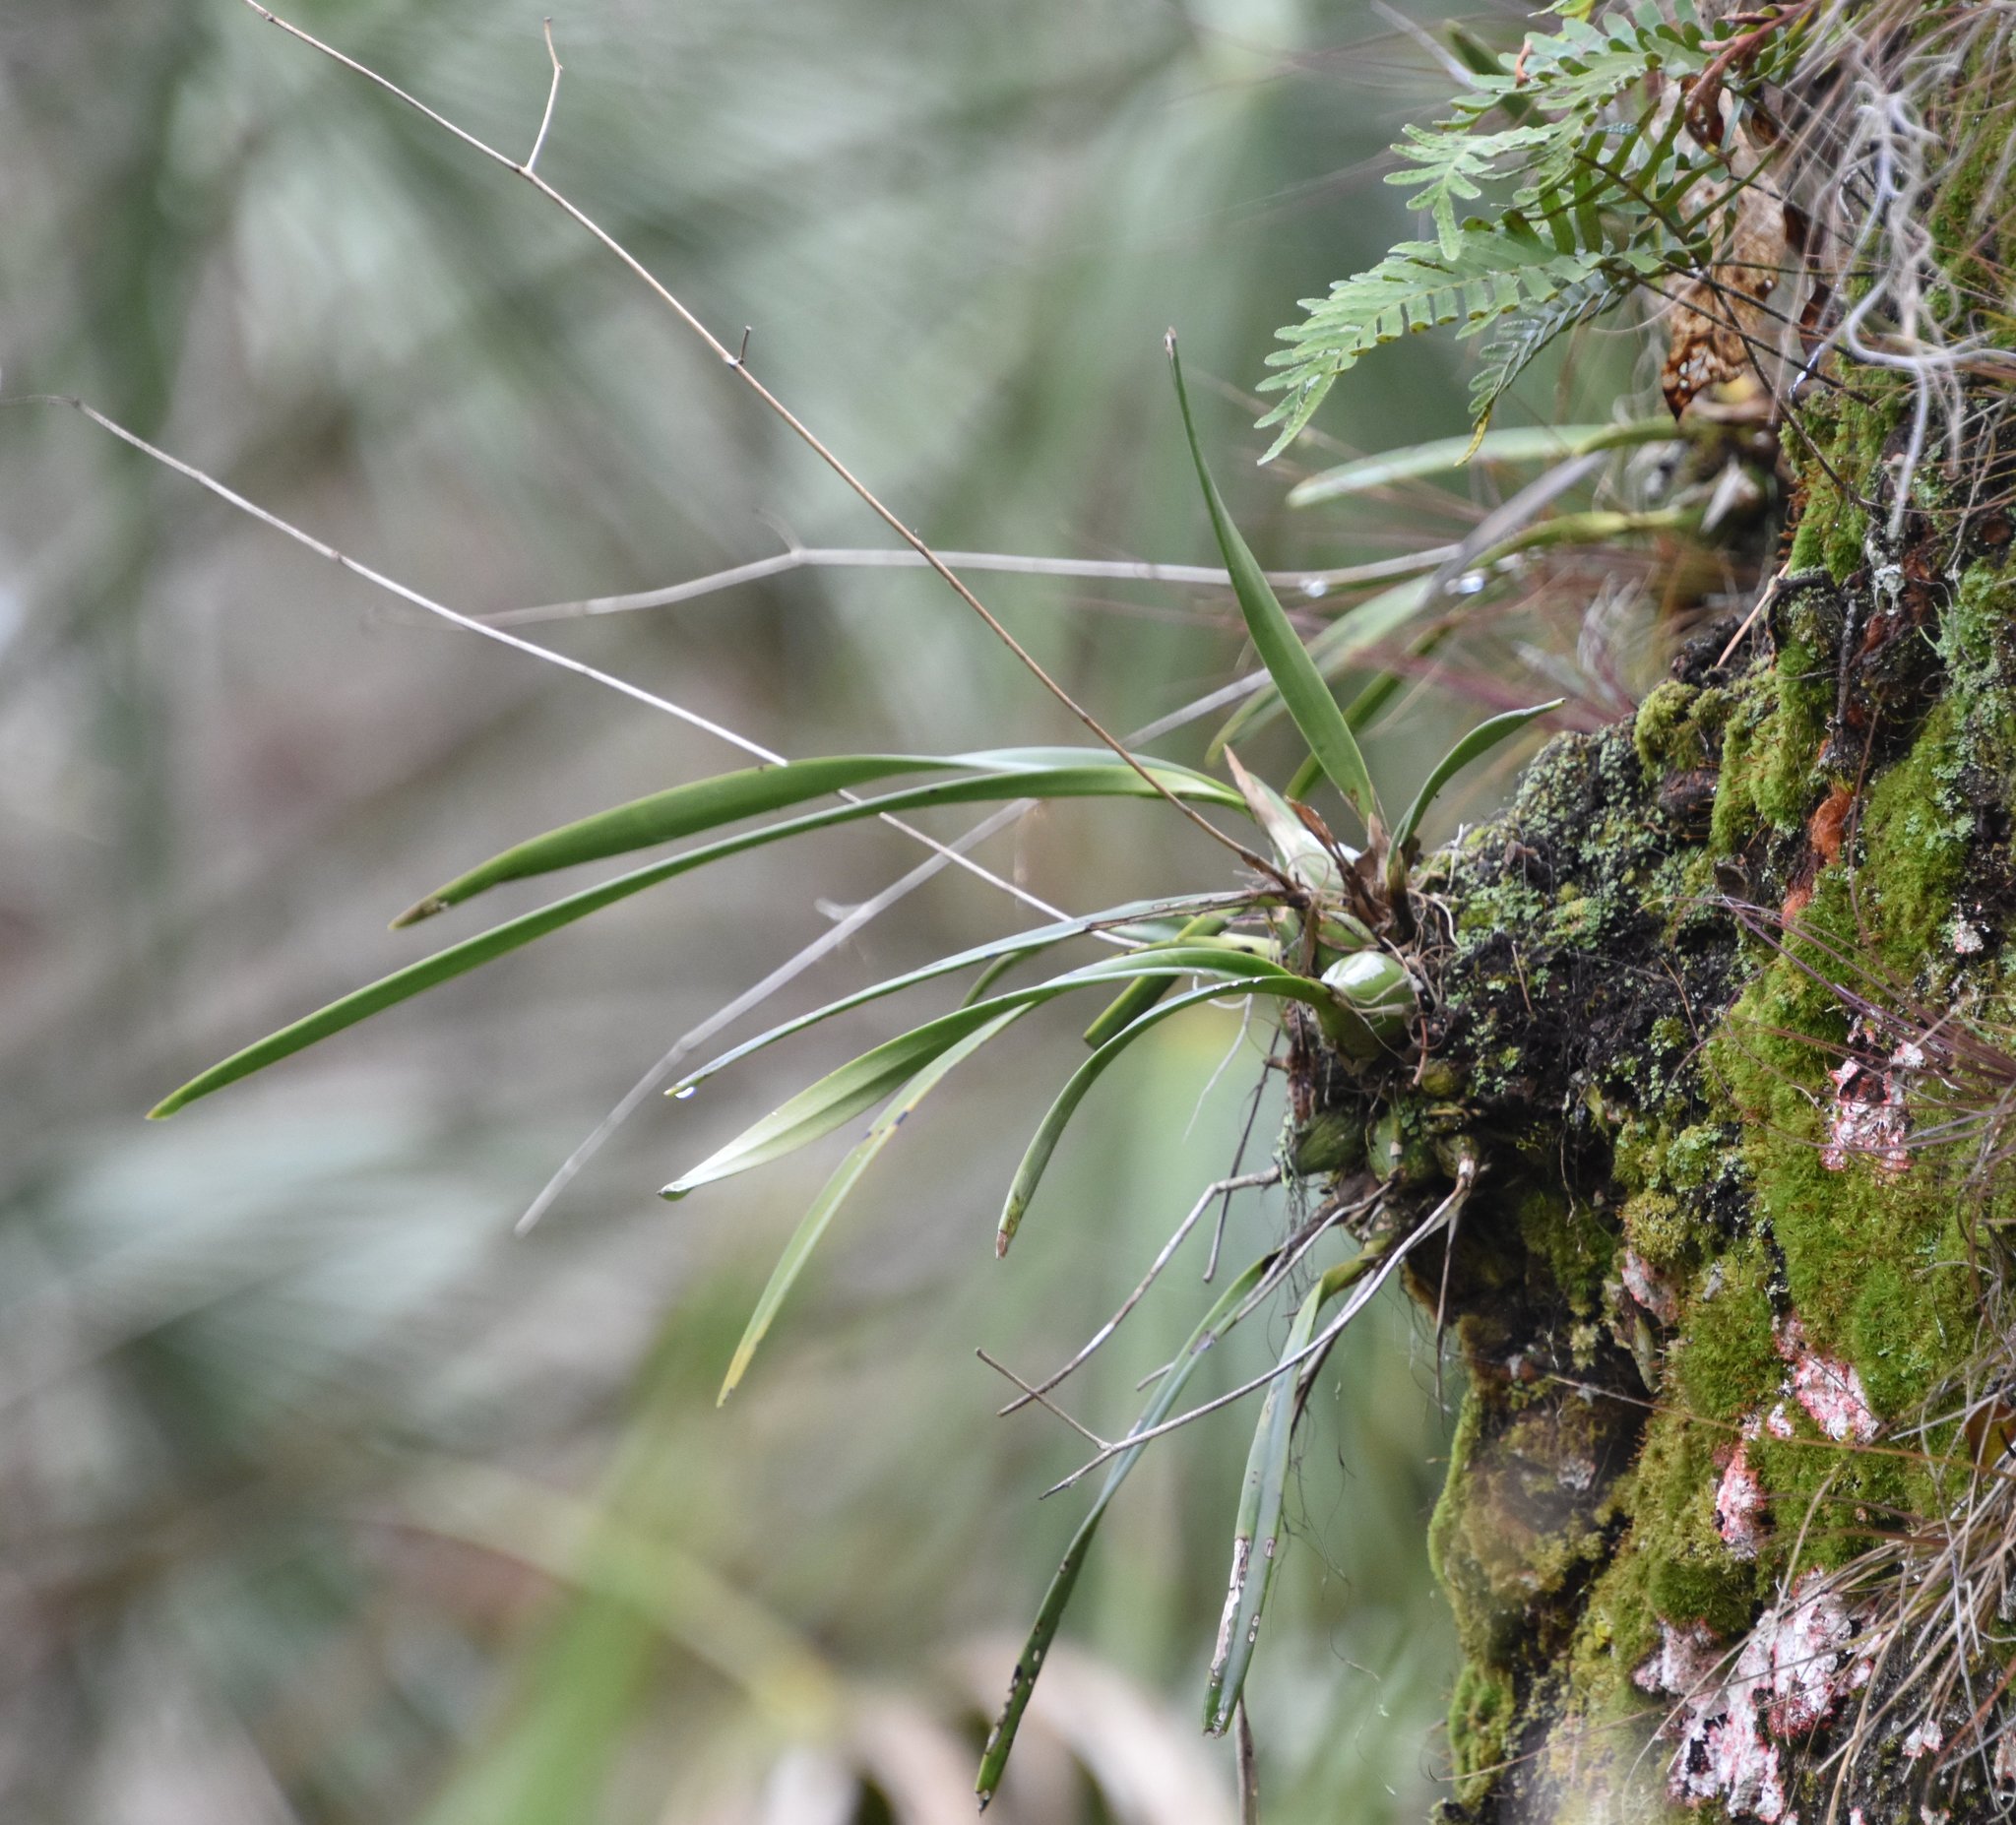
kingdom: Plantae
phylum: Tracheophyta
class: Liliopsida
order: Asparagales
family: Orchidaceae
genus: Encyclia
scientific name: Encyclia tampensis
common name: Florida butterfly orchid
